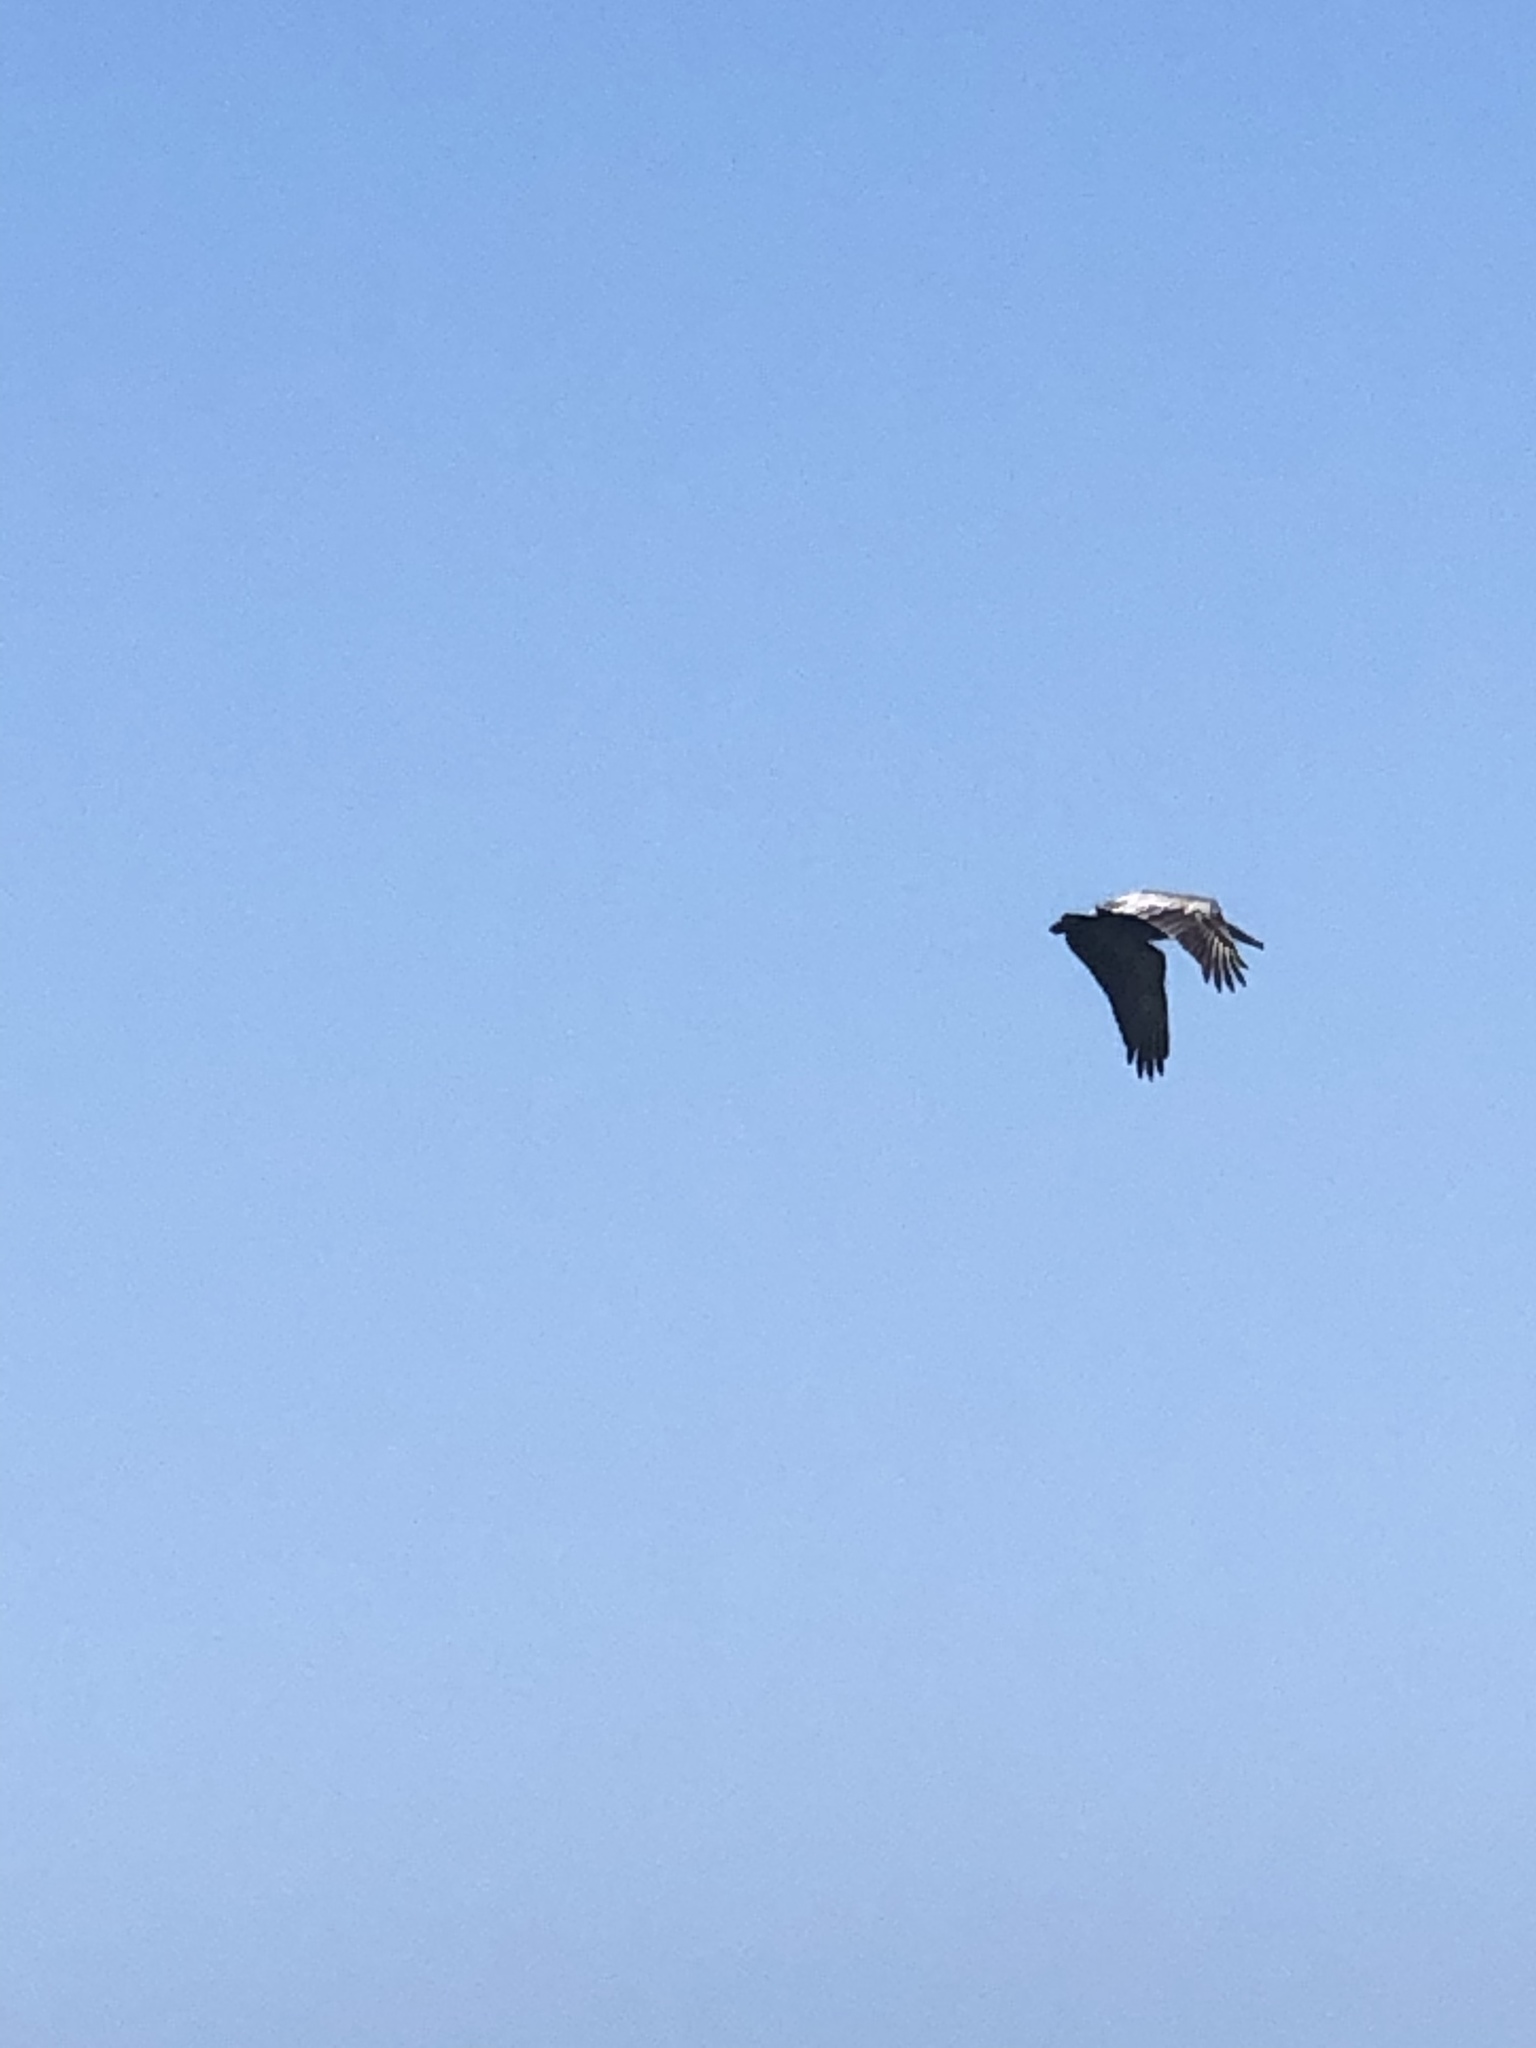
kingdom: Animalia
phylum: Chordata
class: Aves
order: Pelecaniformes
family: Pelecanidae
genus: Pelecanus
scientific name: Pelecanus occidentalis
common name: Brown pelican
